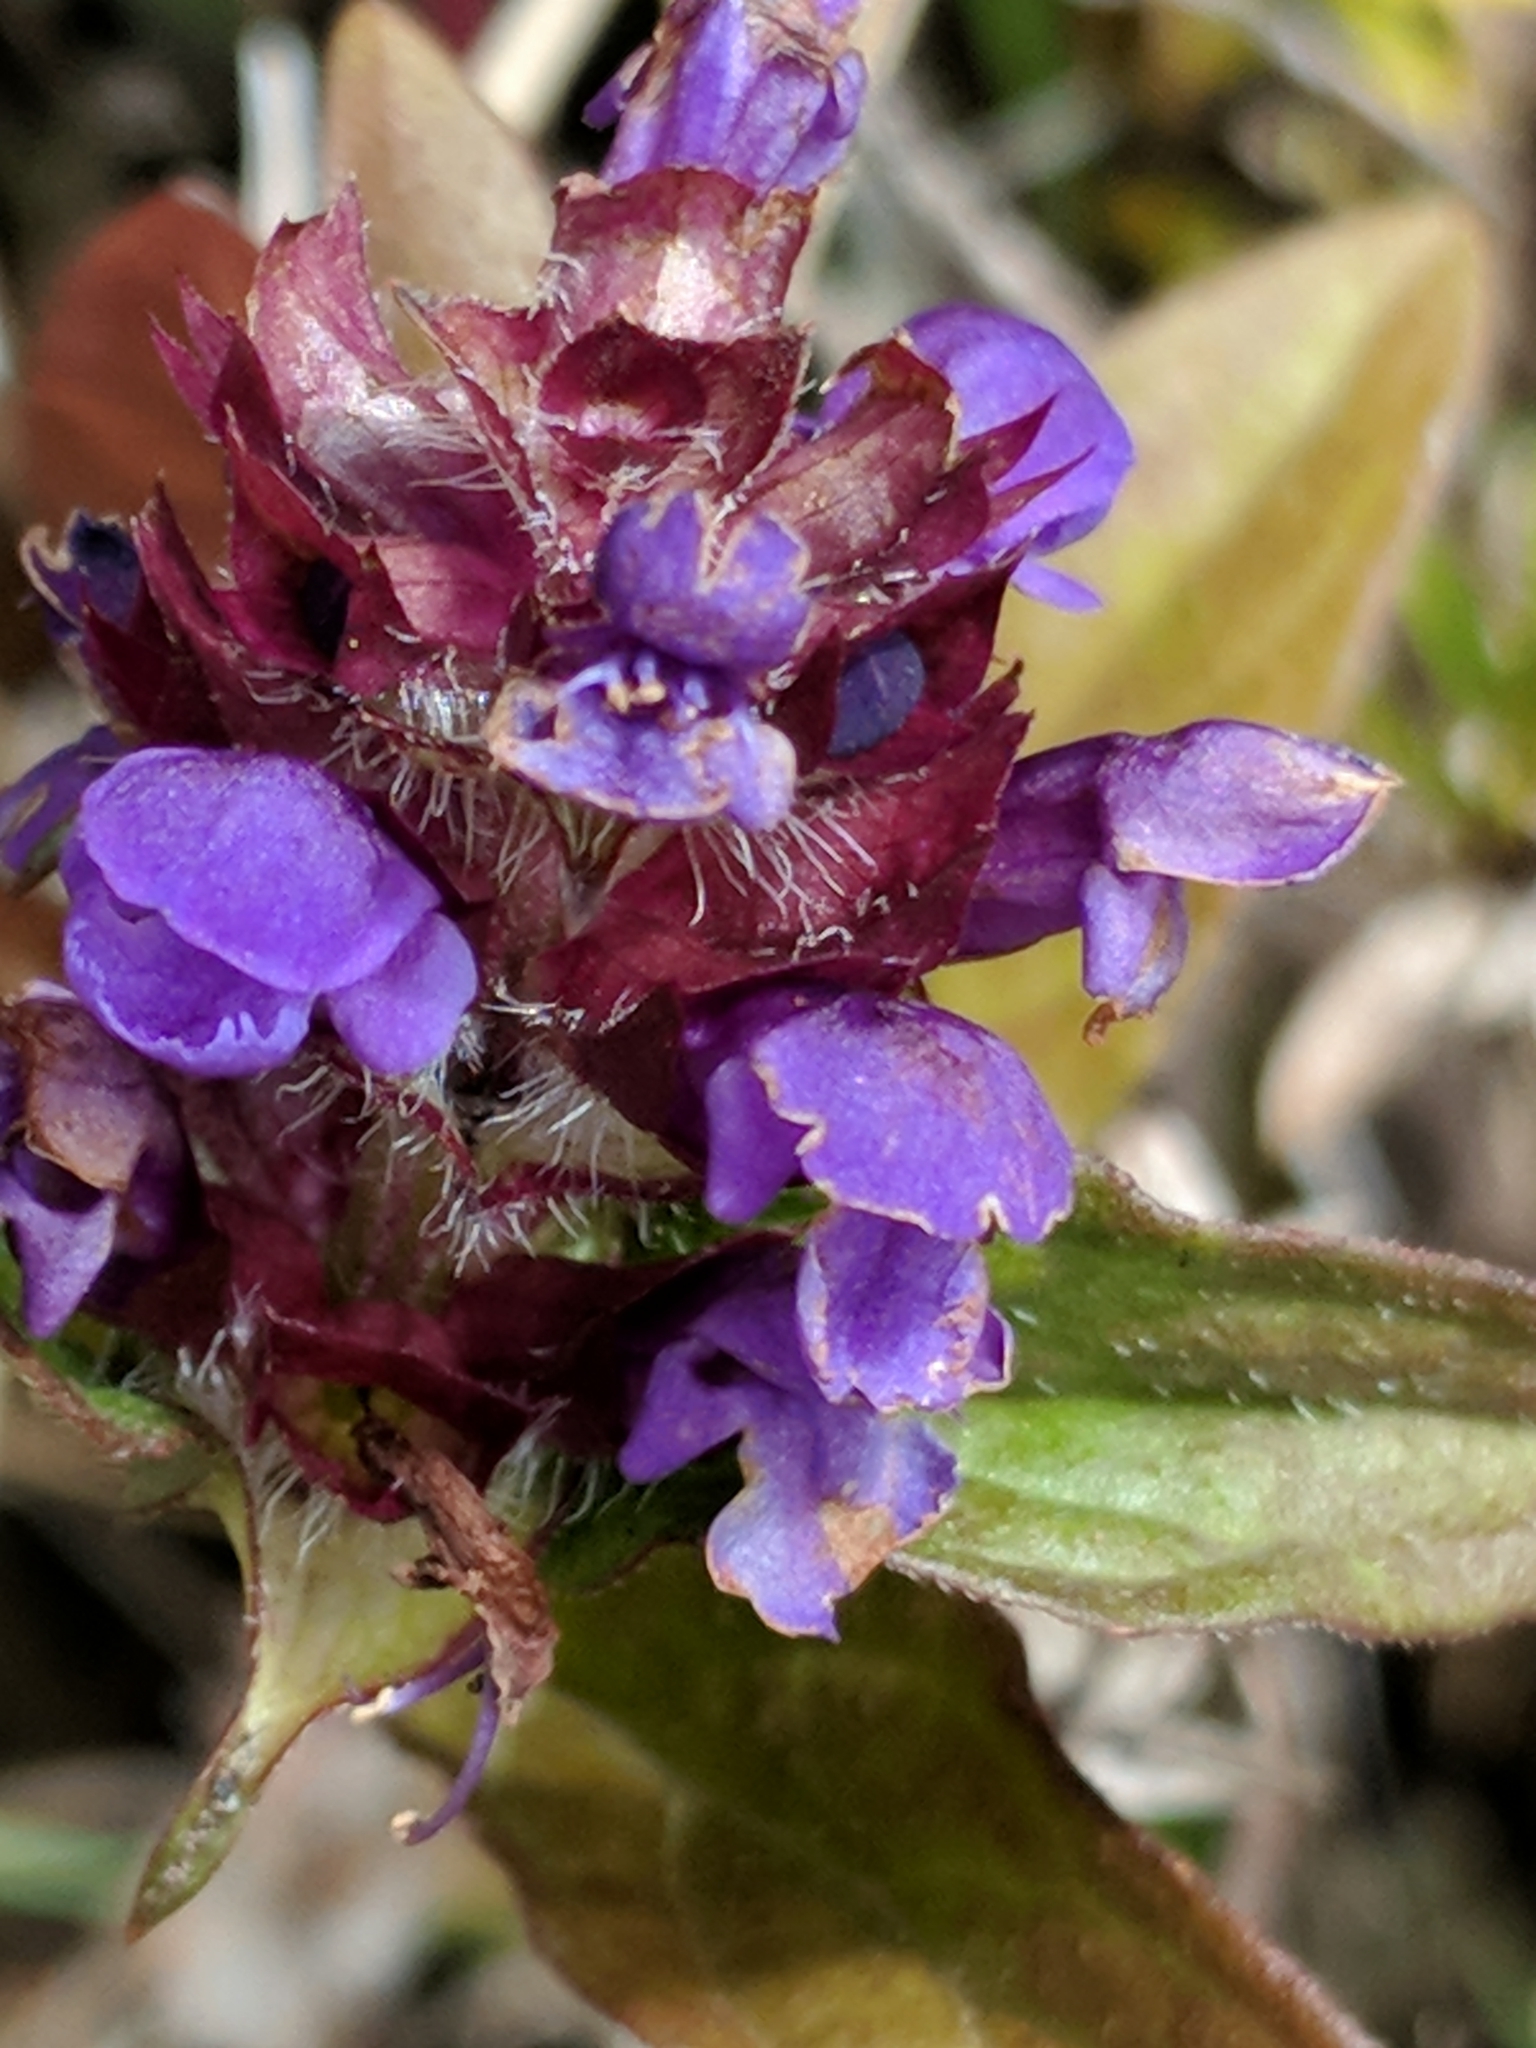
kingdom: Plantae
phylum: Tracheophyta
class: Magnoliopsida
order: Lamiales
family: Lamiaceae
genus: Prunella
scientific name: Prunella vulgaris
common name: Heal-all
